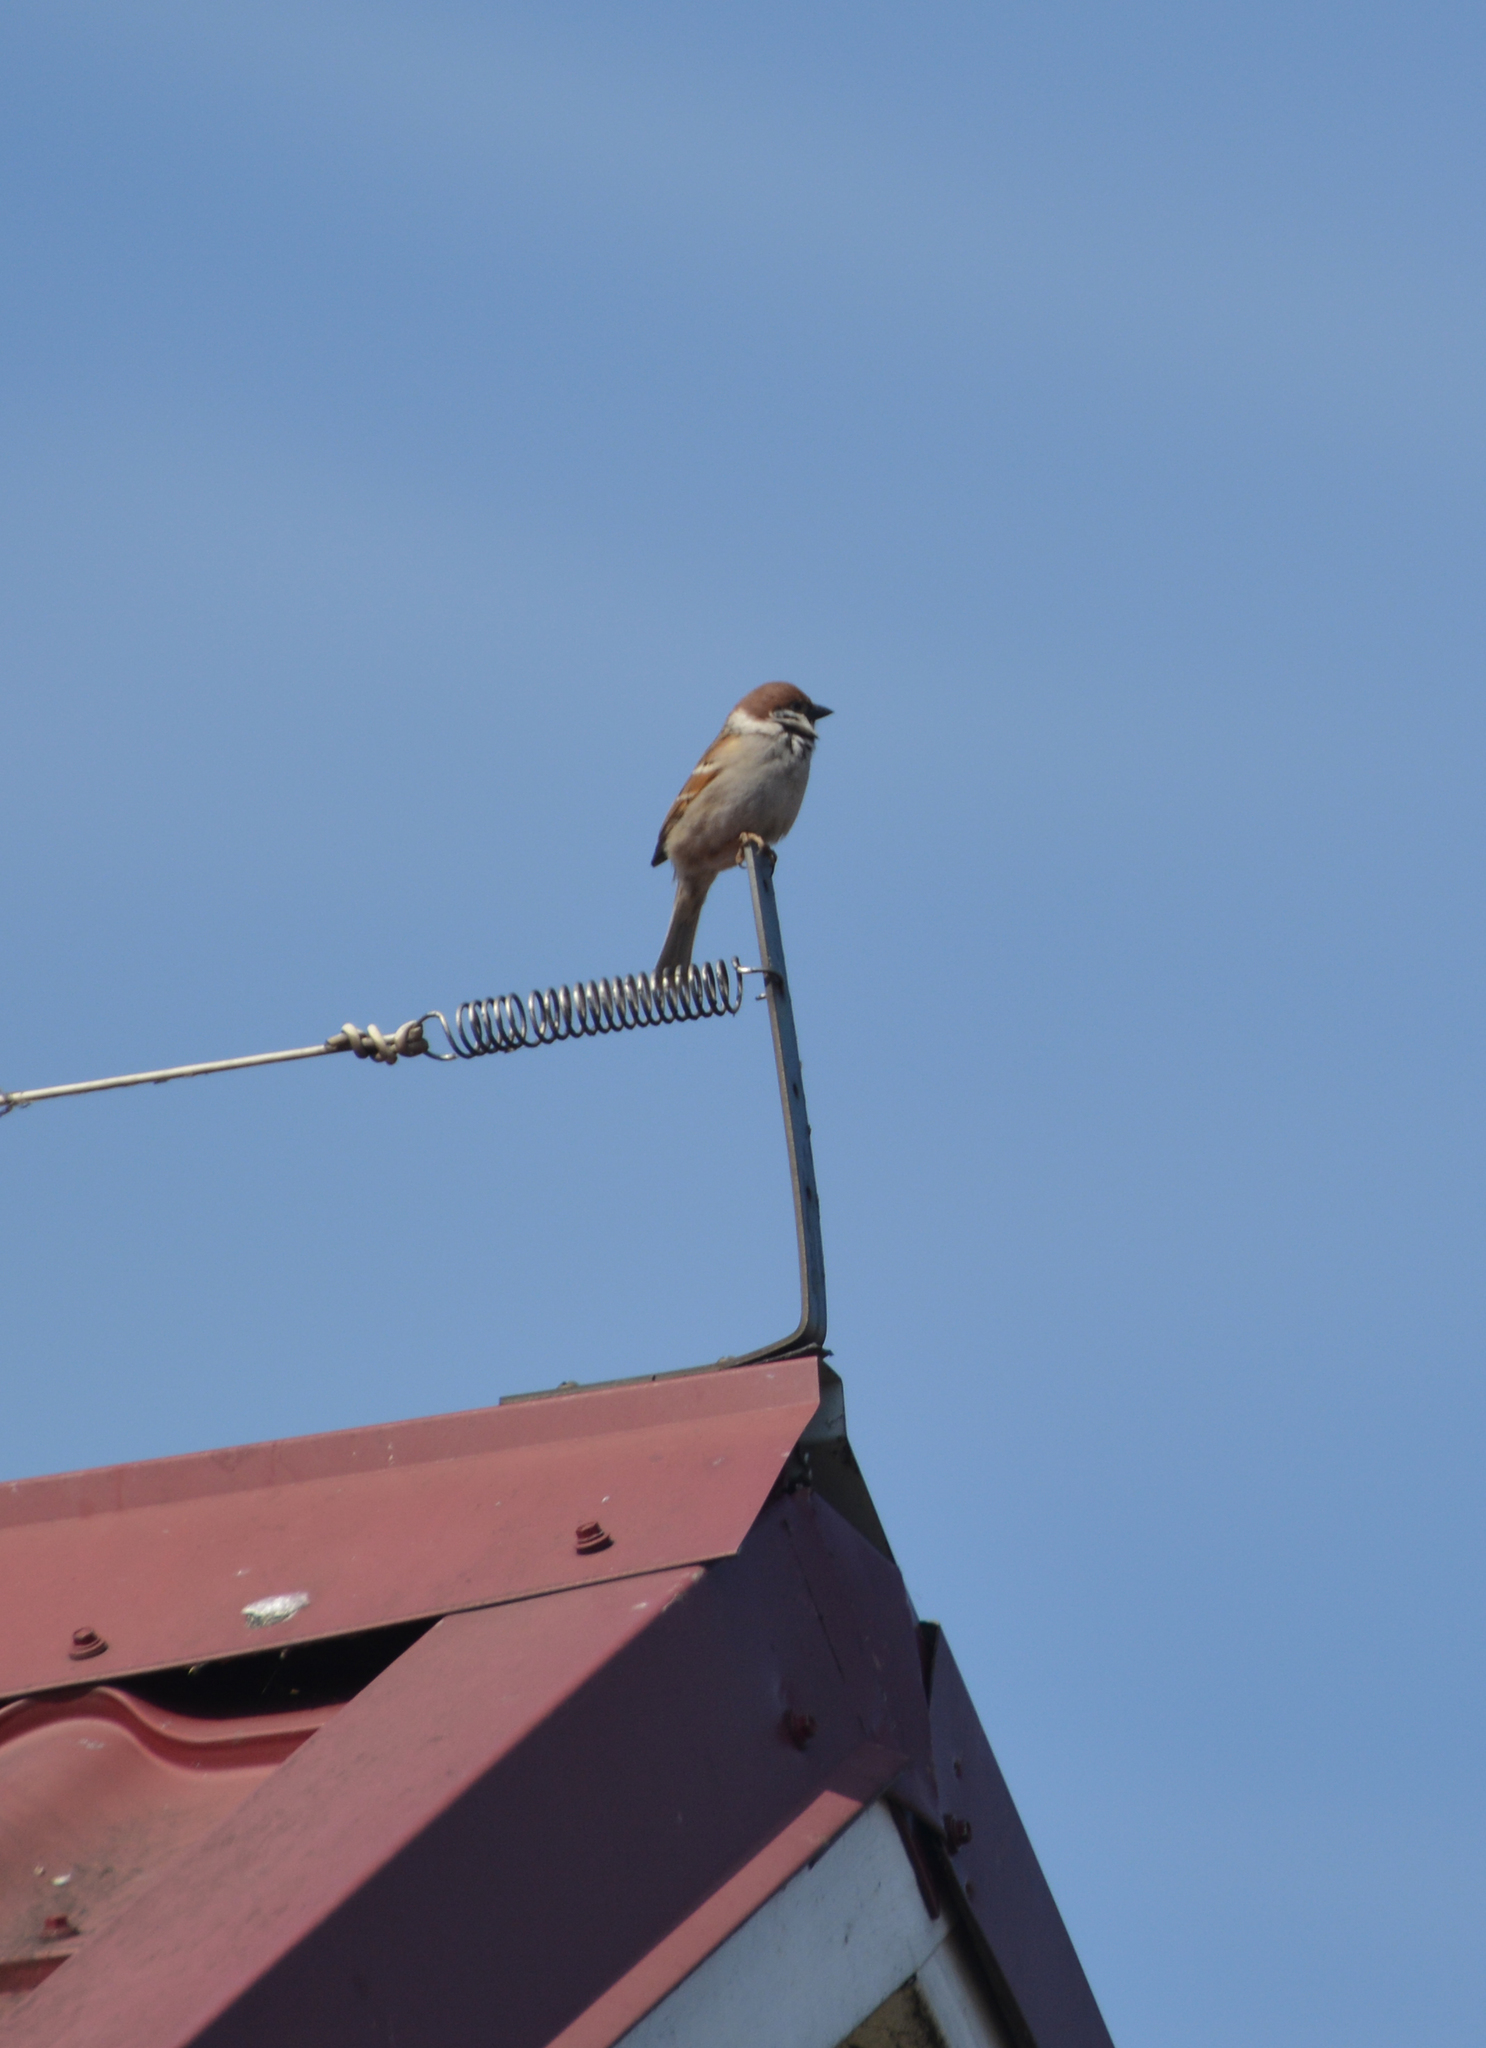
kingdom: Animalia
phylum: Chordata
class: Aves
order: Passeriformes
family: Passeridae
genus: Passer
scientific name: Passer montanus
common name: Eurasian tree sparrow
